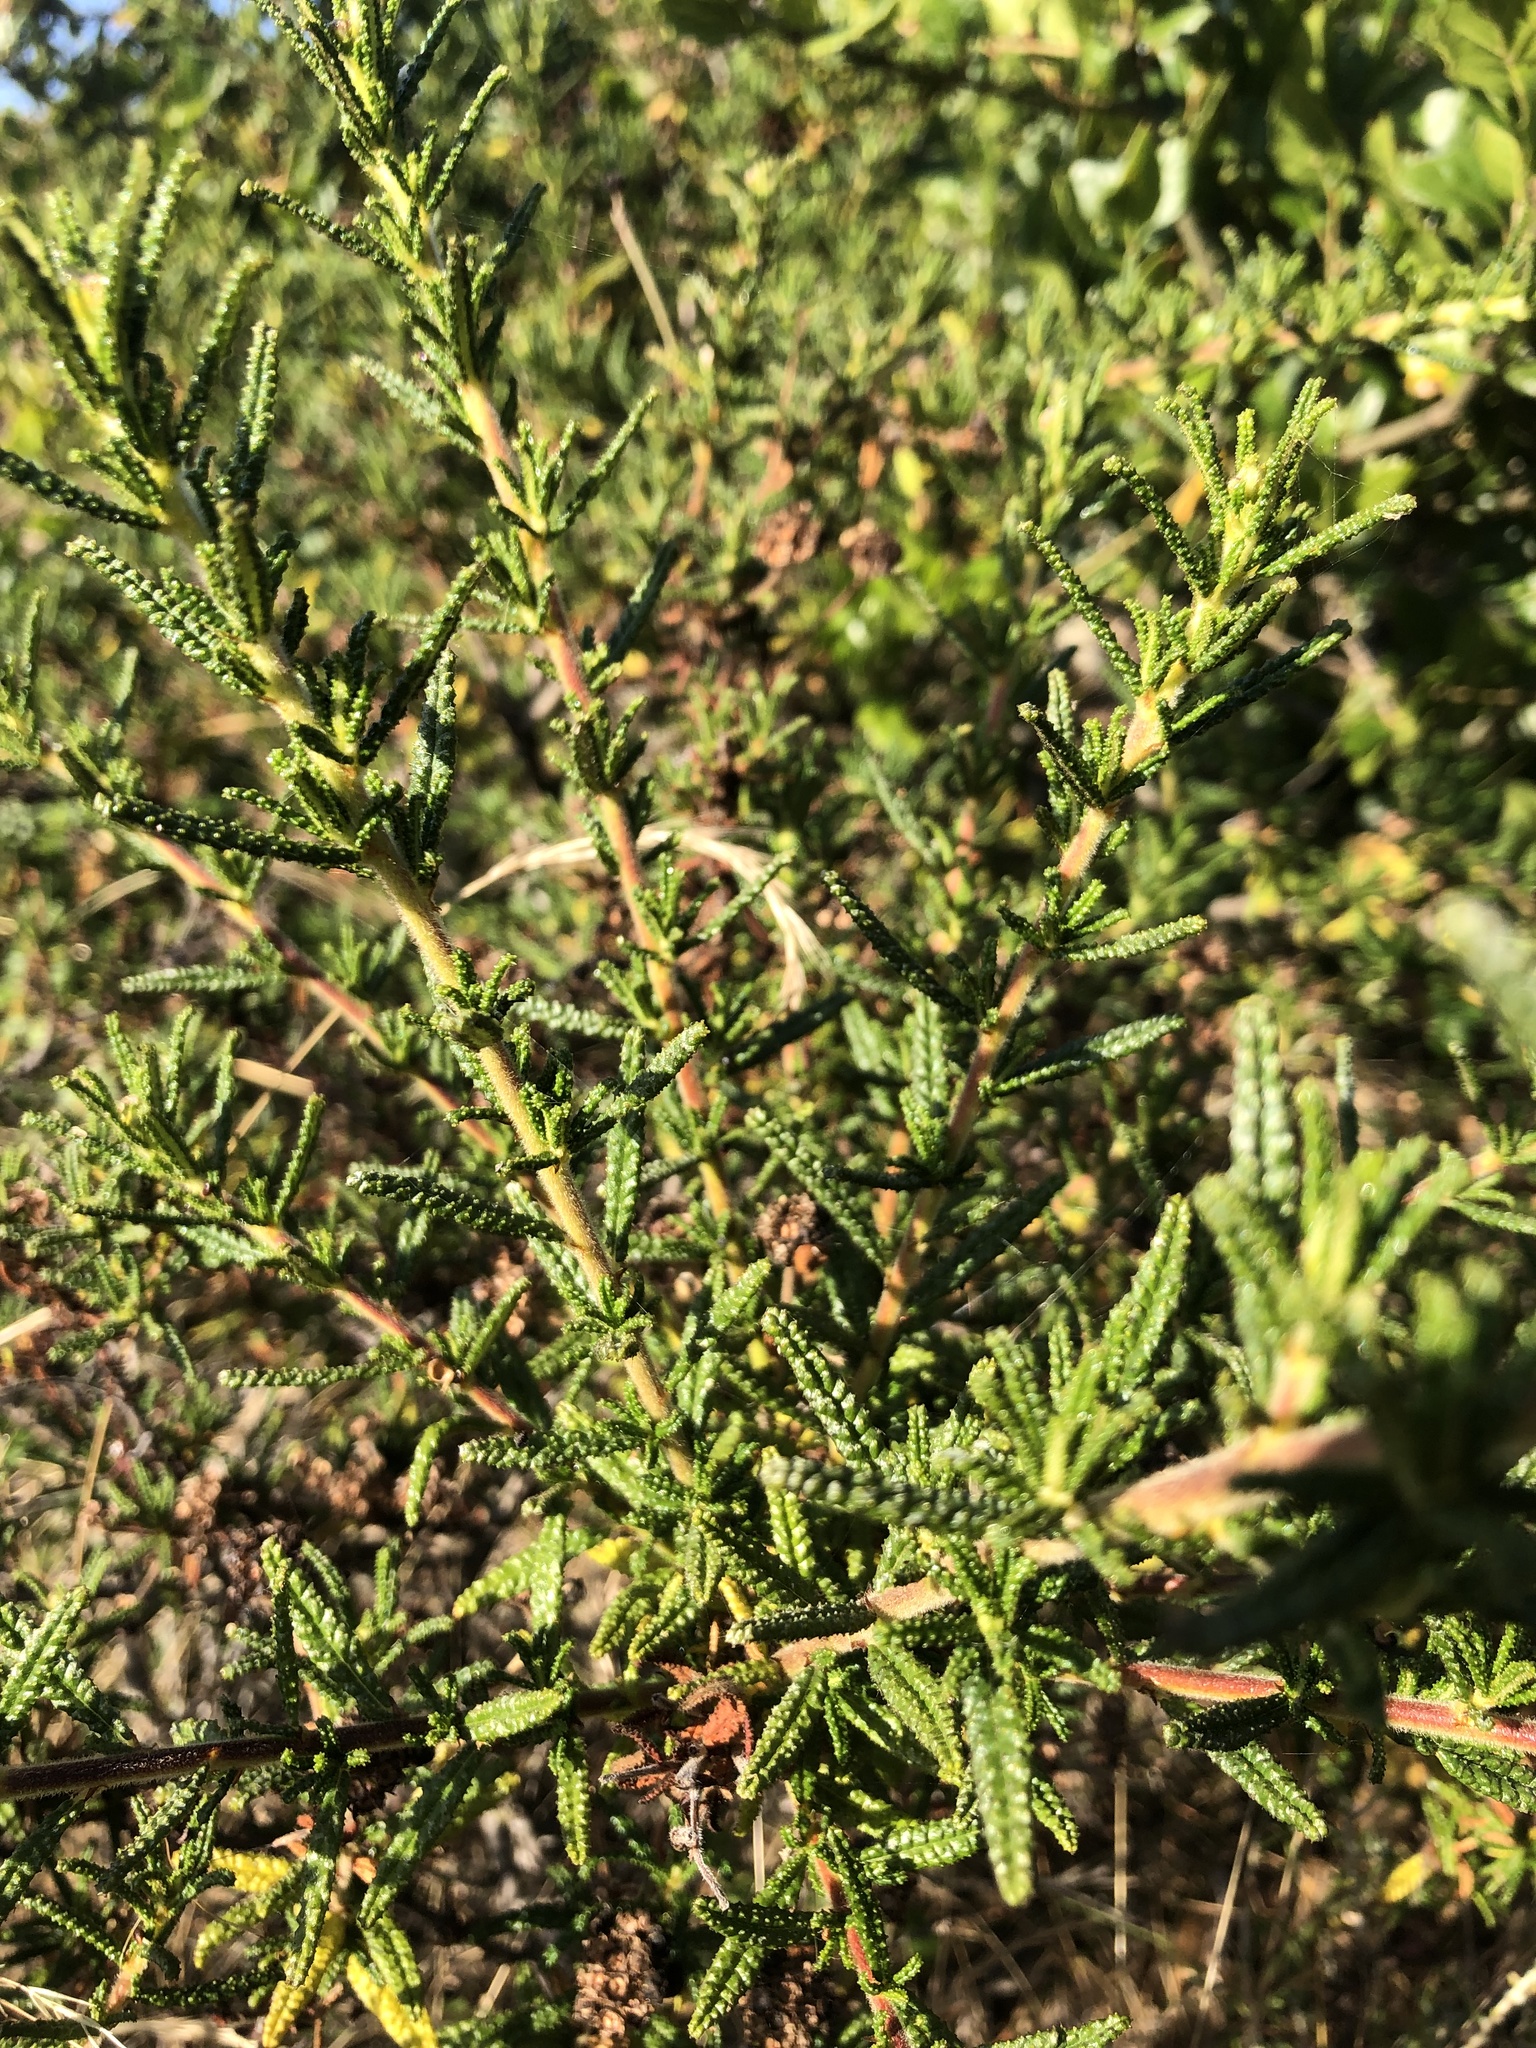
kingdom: Plantae
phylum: Tracheophyta
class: Magnoliopsida
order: Rosales
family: Rhamnaceae
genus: Ceanothus
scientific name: Ceanothus papillosus
